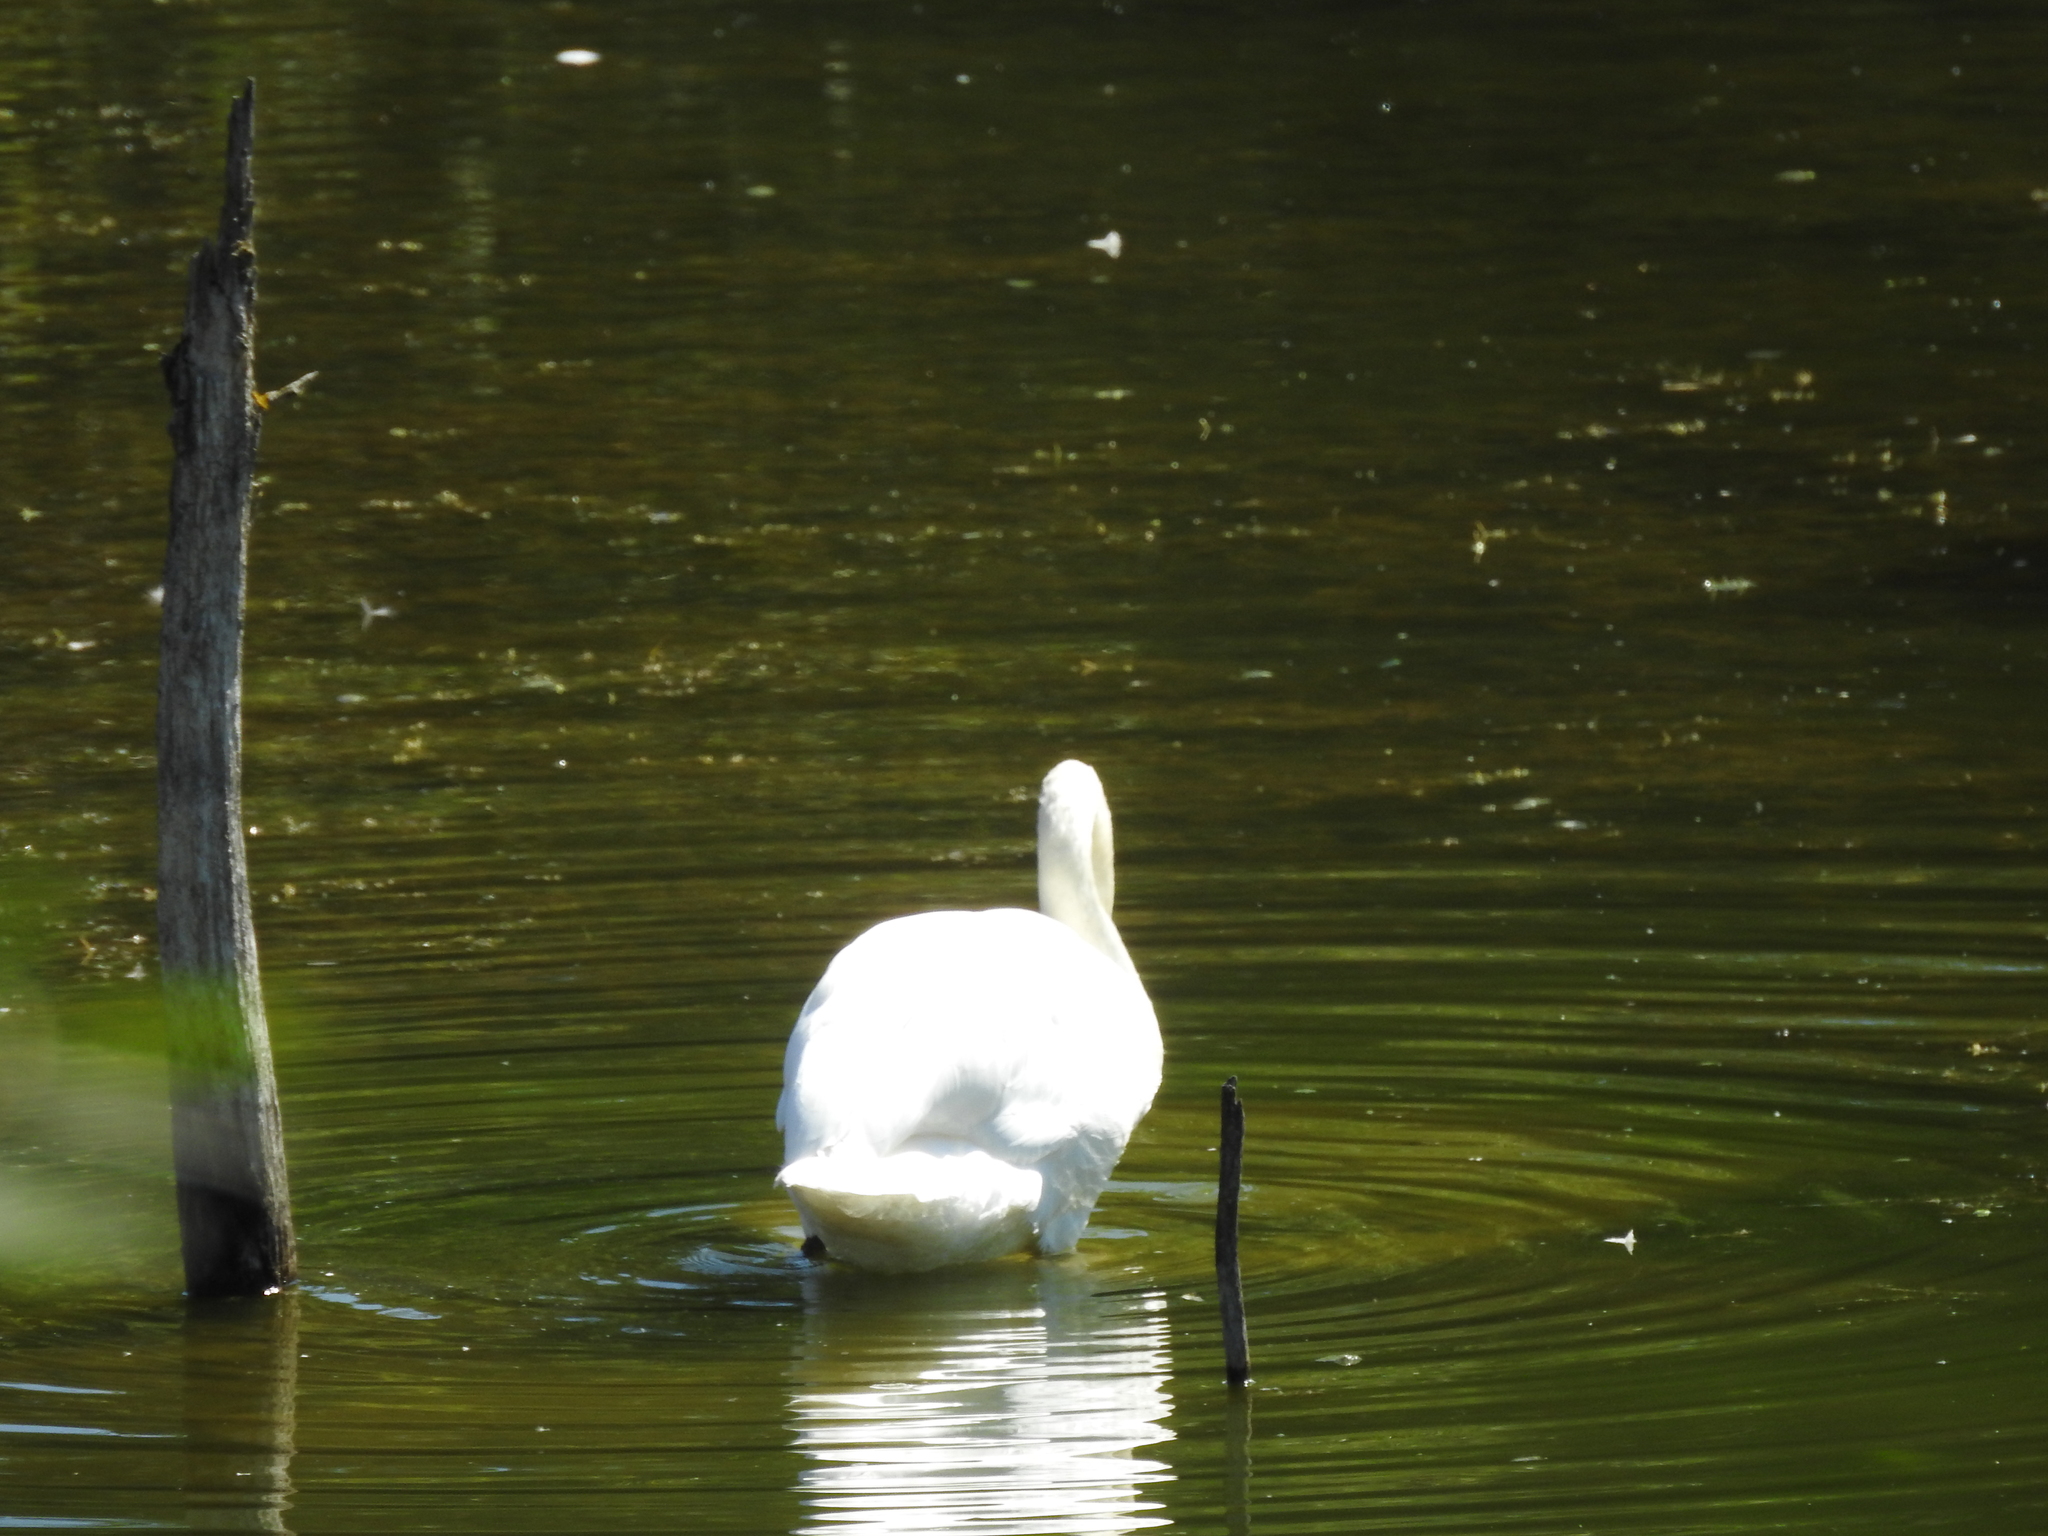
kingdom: Animalia
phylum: Chordata
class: Aves
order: Anseriformes
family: Anatidae
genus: Cygnus
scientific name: Cygnus olor
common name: Mute swan
